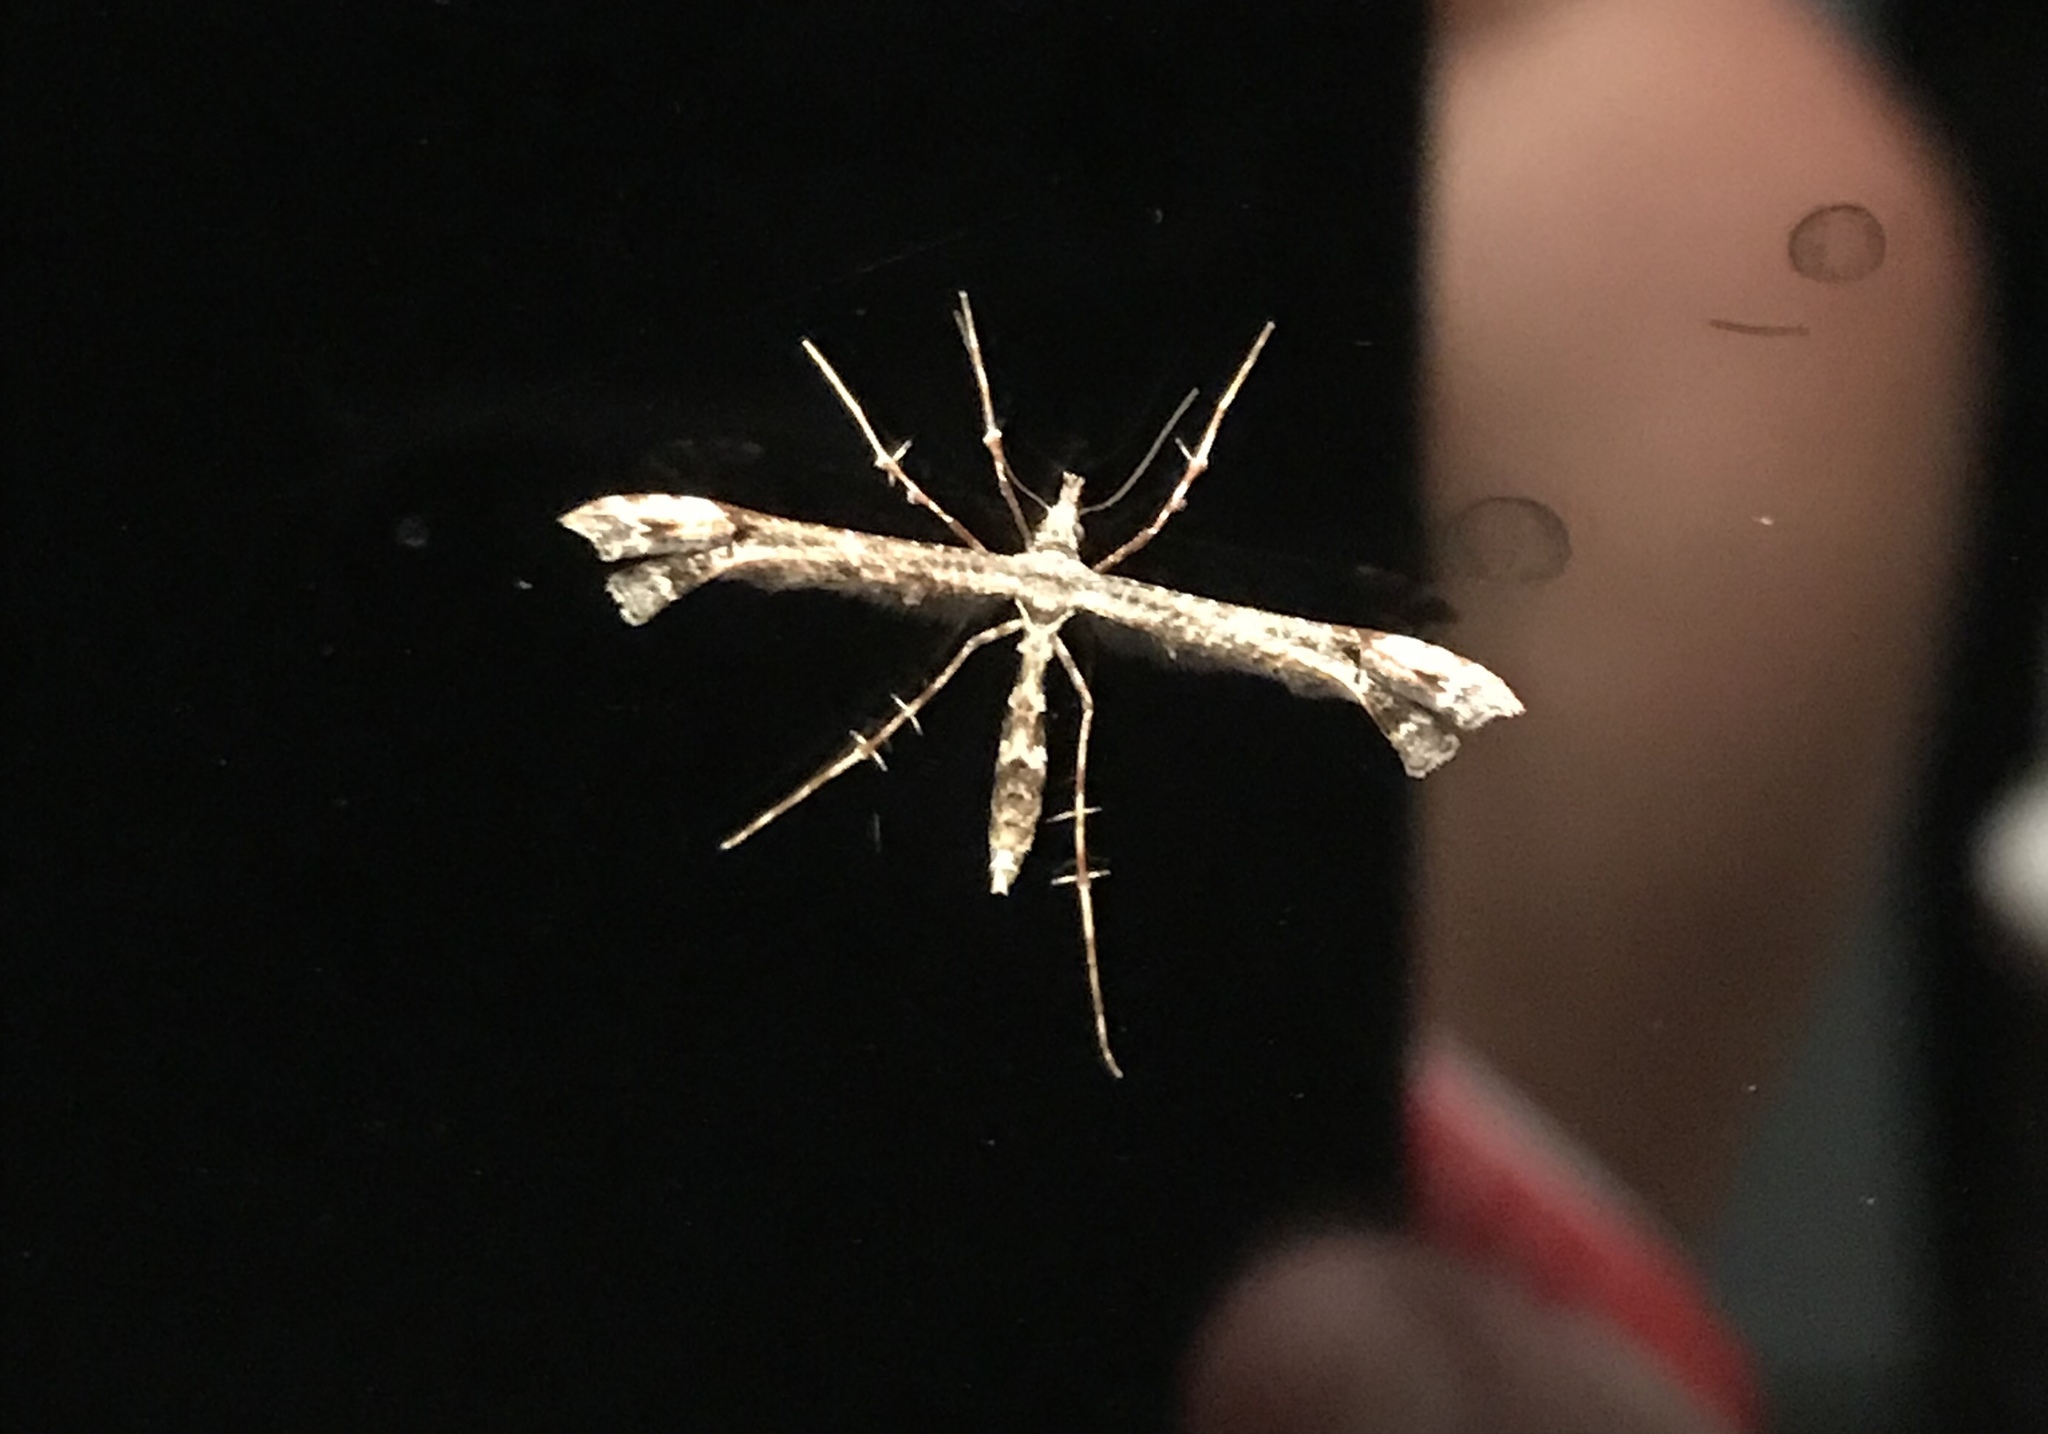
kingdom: Animalia
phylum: Arthropoda
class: Insecta
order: Lepidoptera
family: Pterophoridae
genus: Amblyptilia
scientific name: Amblyptilia repletalis
